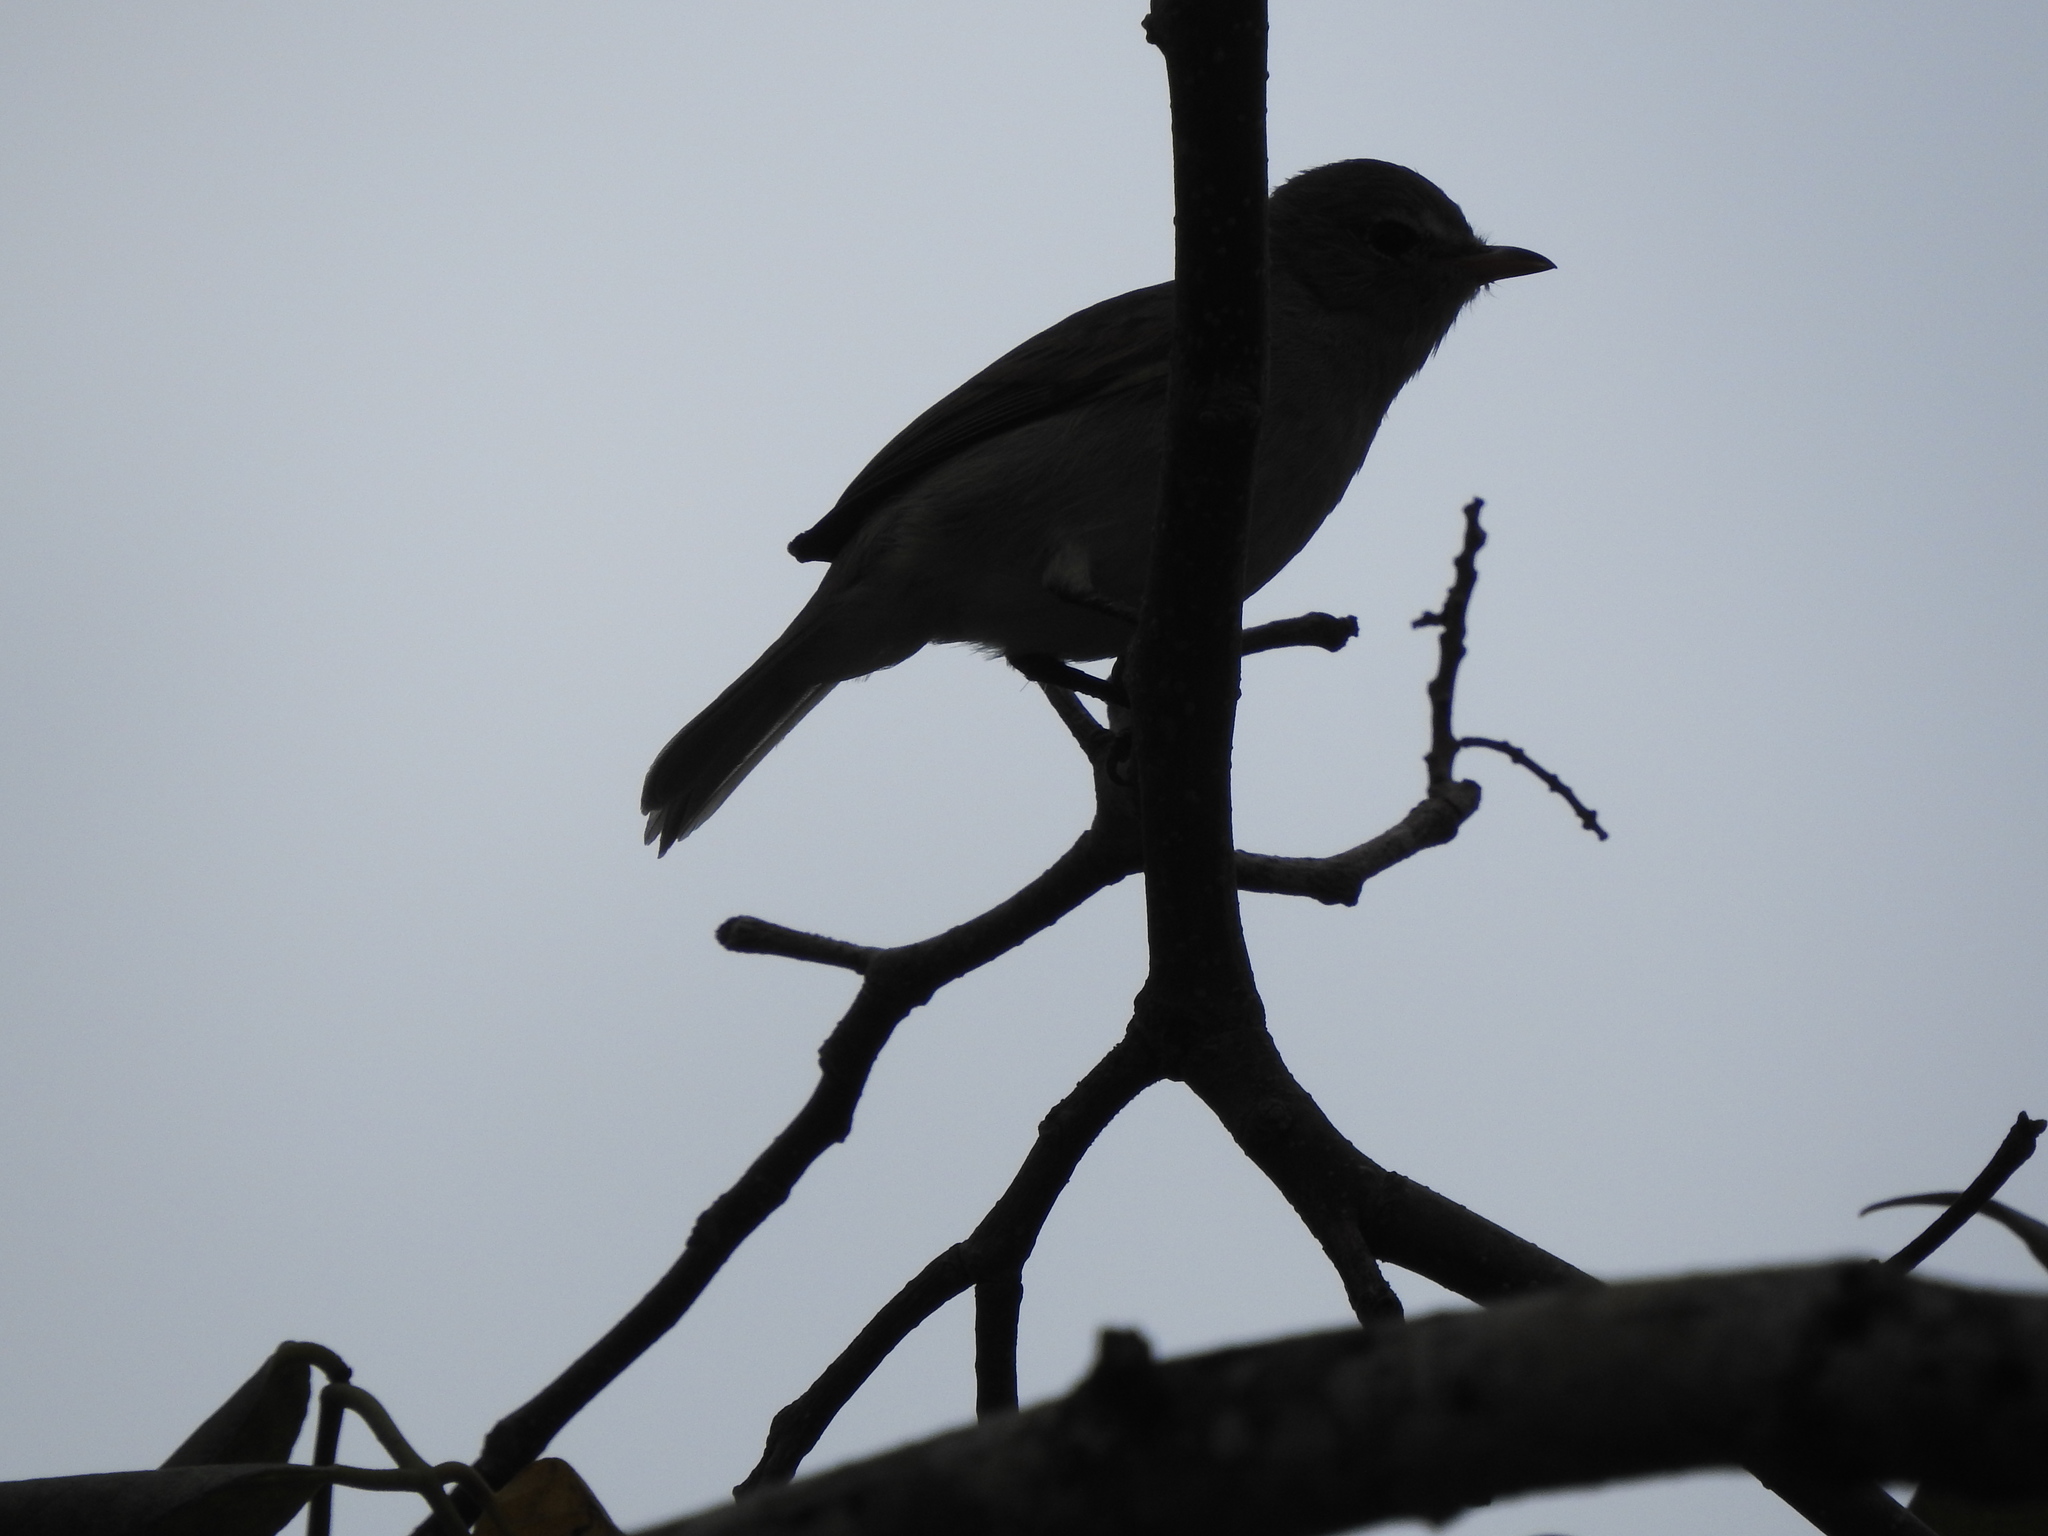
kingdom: Animalia
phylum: Chordata
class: Aves
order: Passeriformes
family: Tyrannidae
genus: Camptostoma
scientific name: Camptostoma imberbe
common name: Northern beardless-tyrannulet
